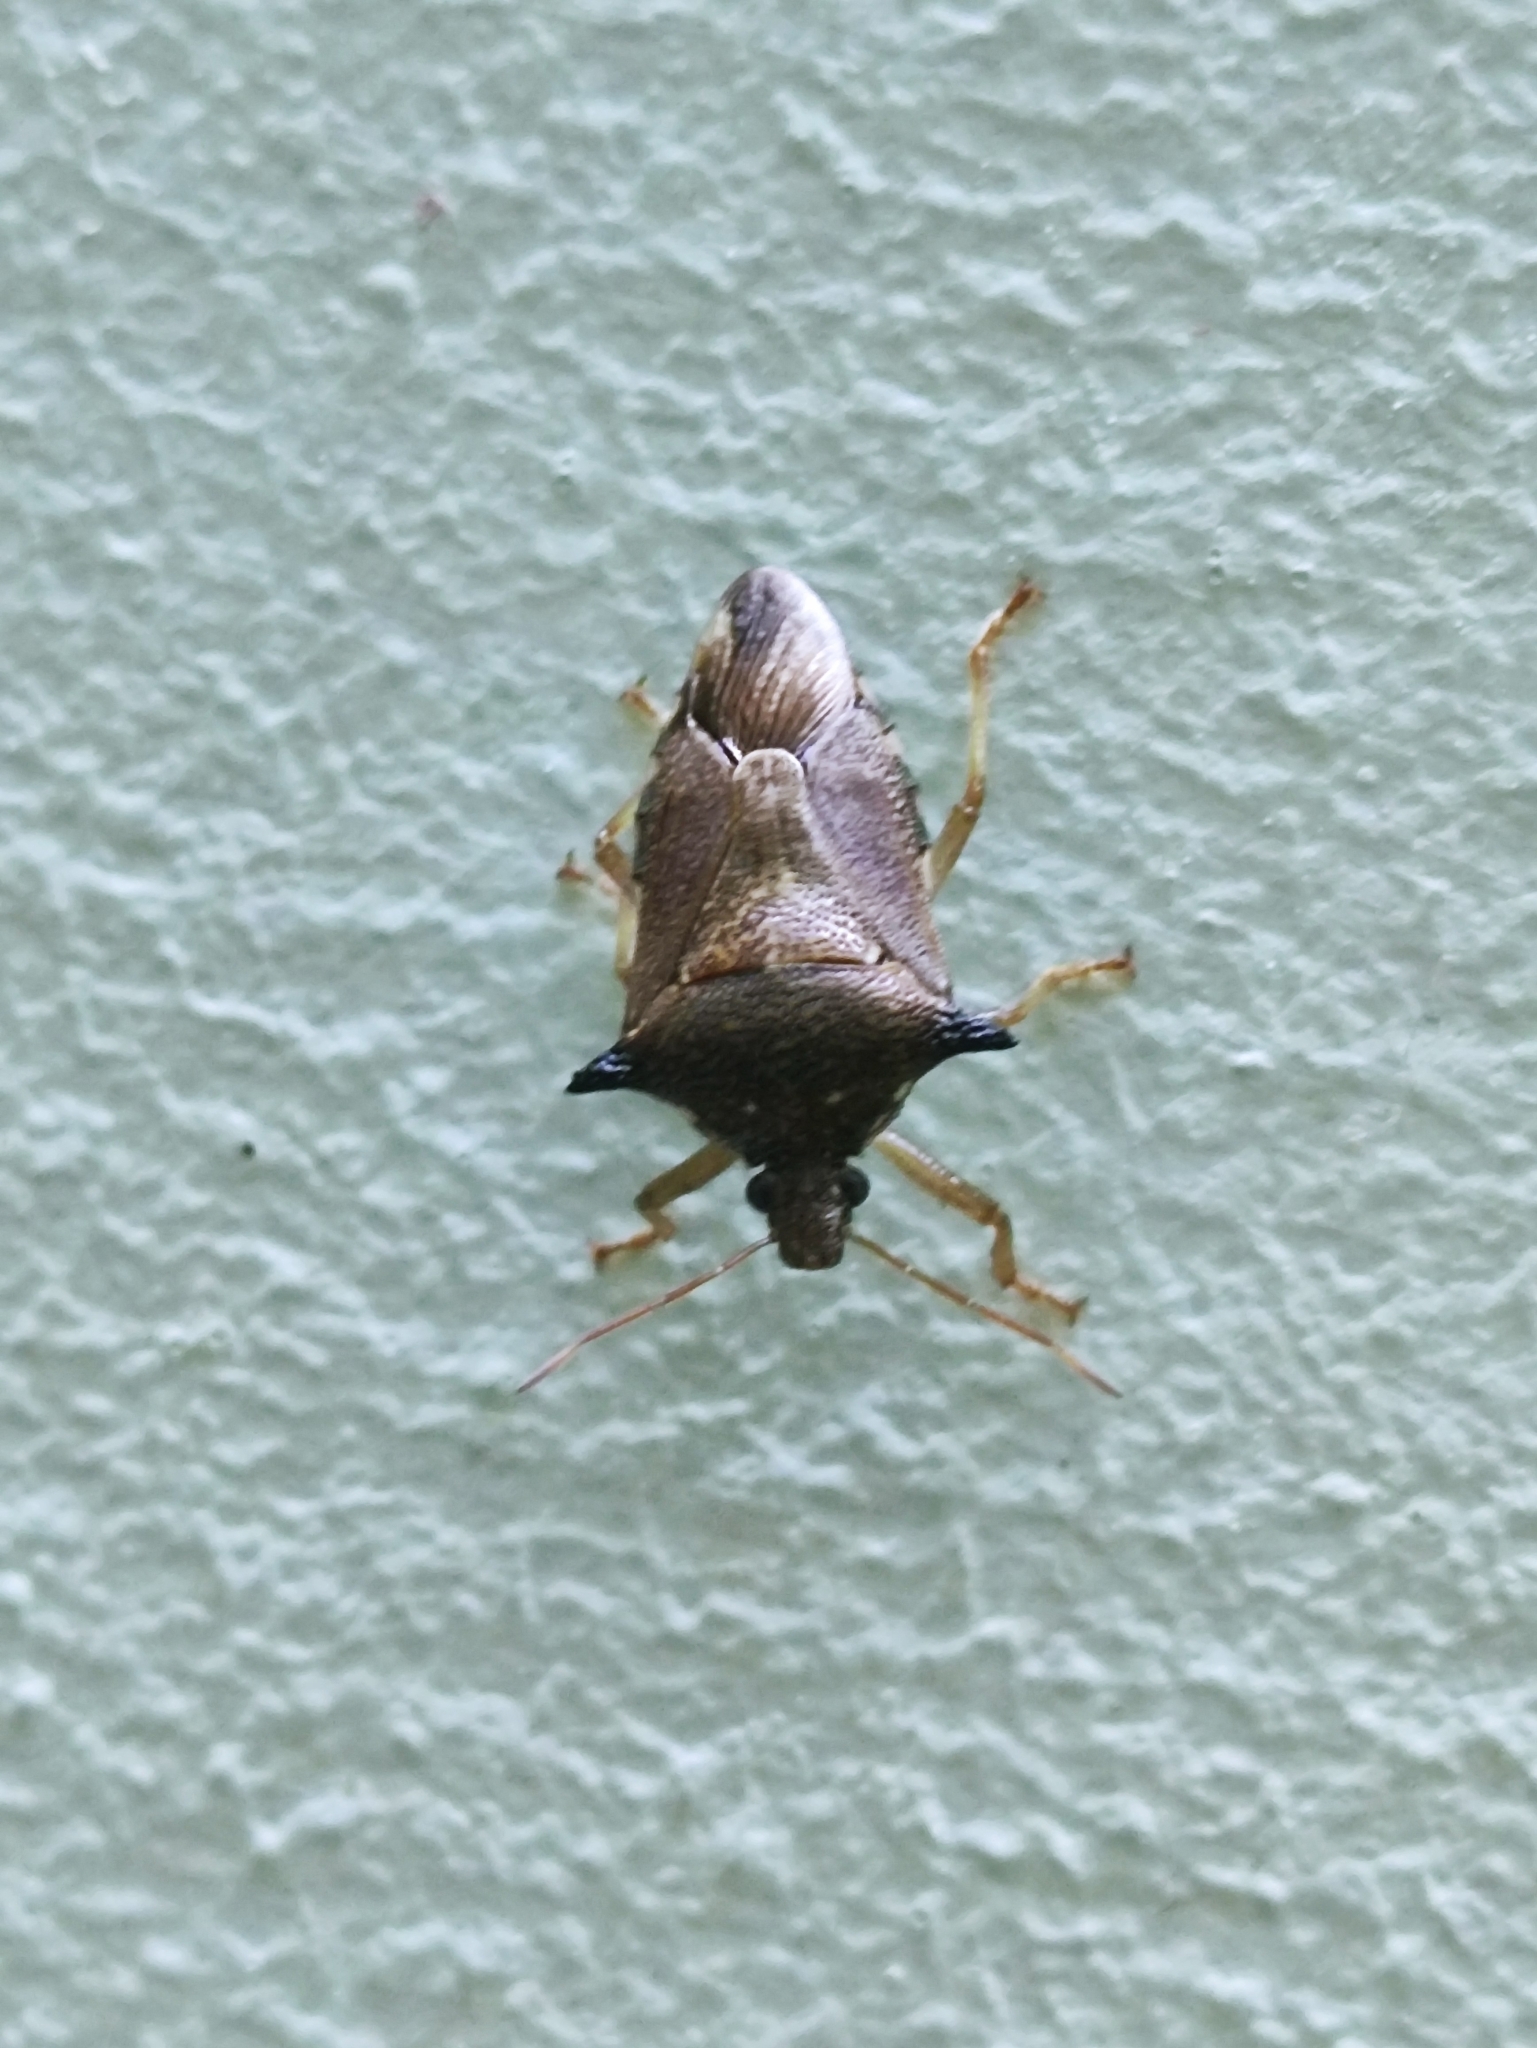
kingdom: Animalia
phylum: Arthropoda
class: Insecta
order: Hemiptera
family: Pentatomidae
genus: Eocanthecona
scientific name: Eocanthecona
